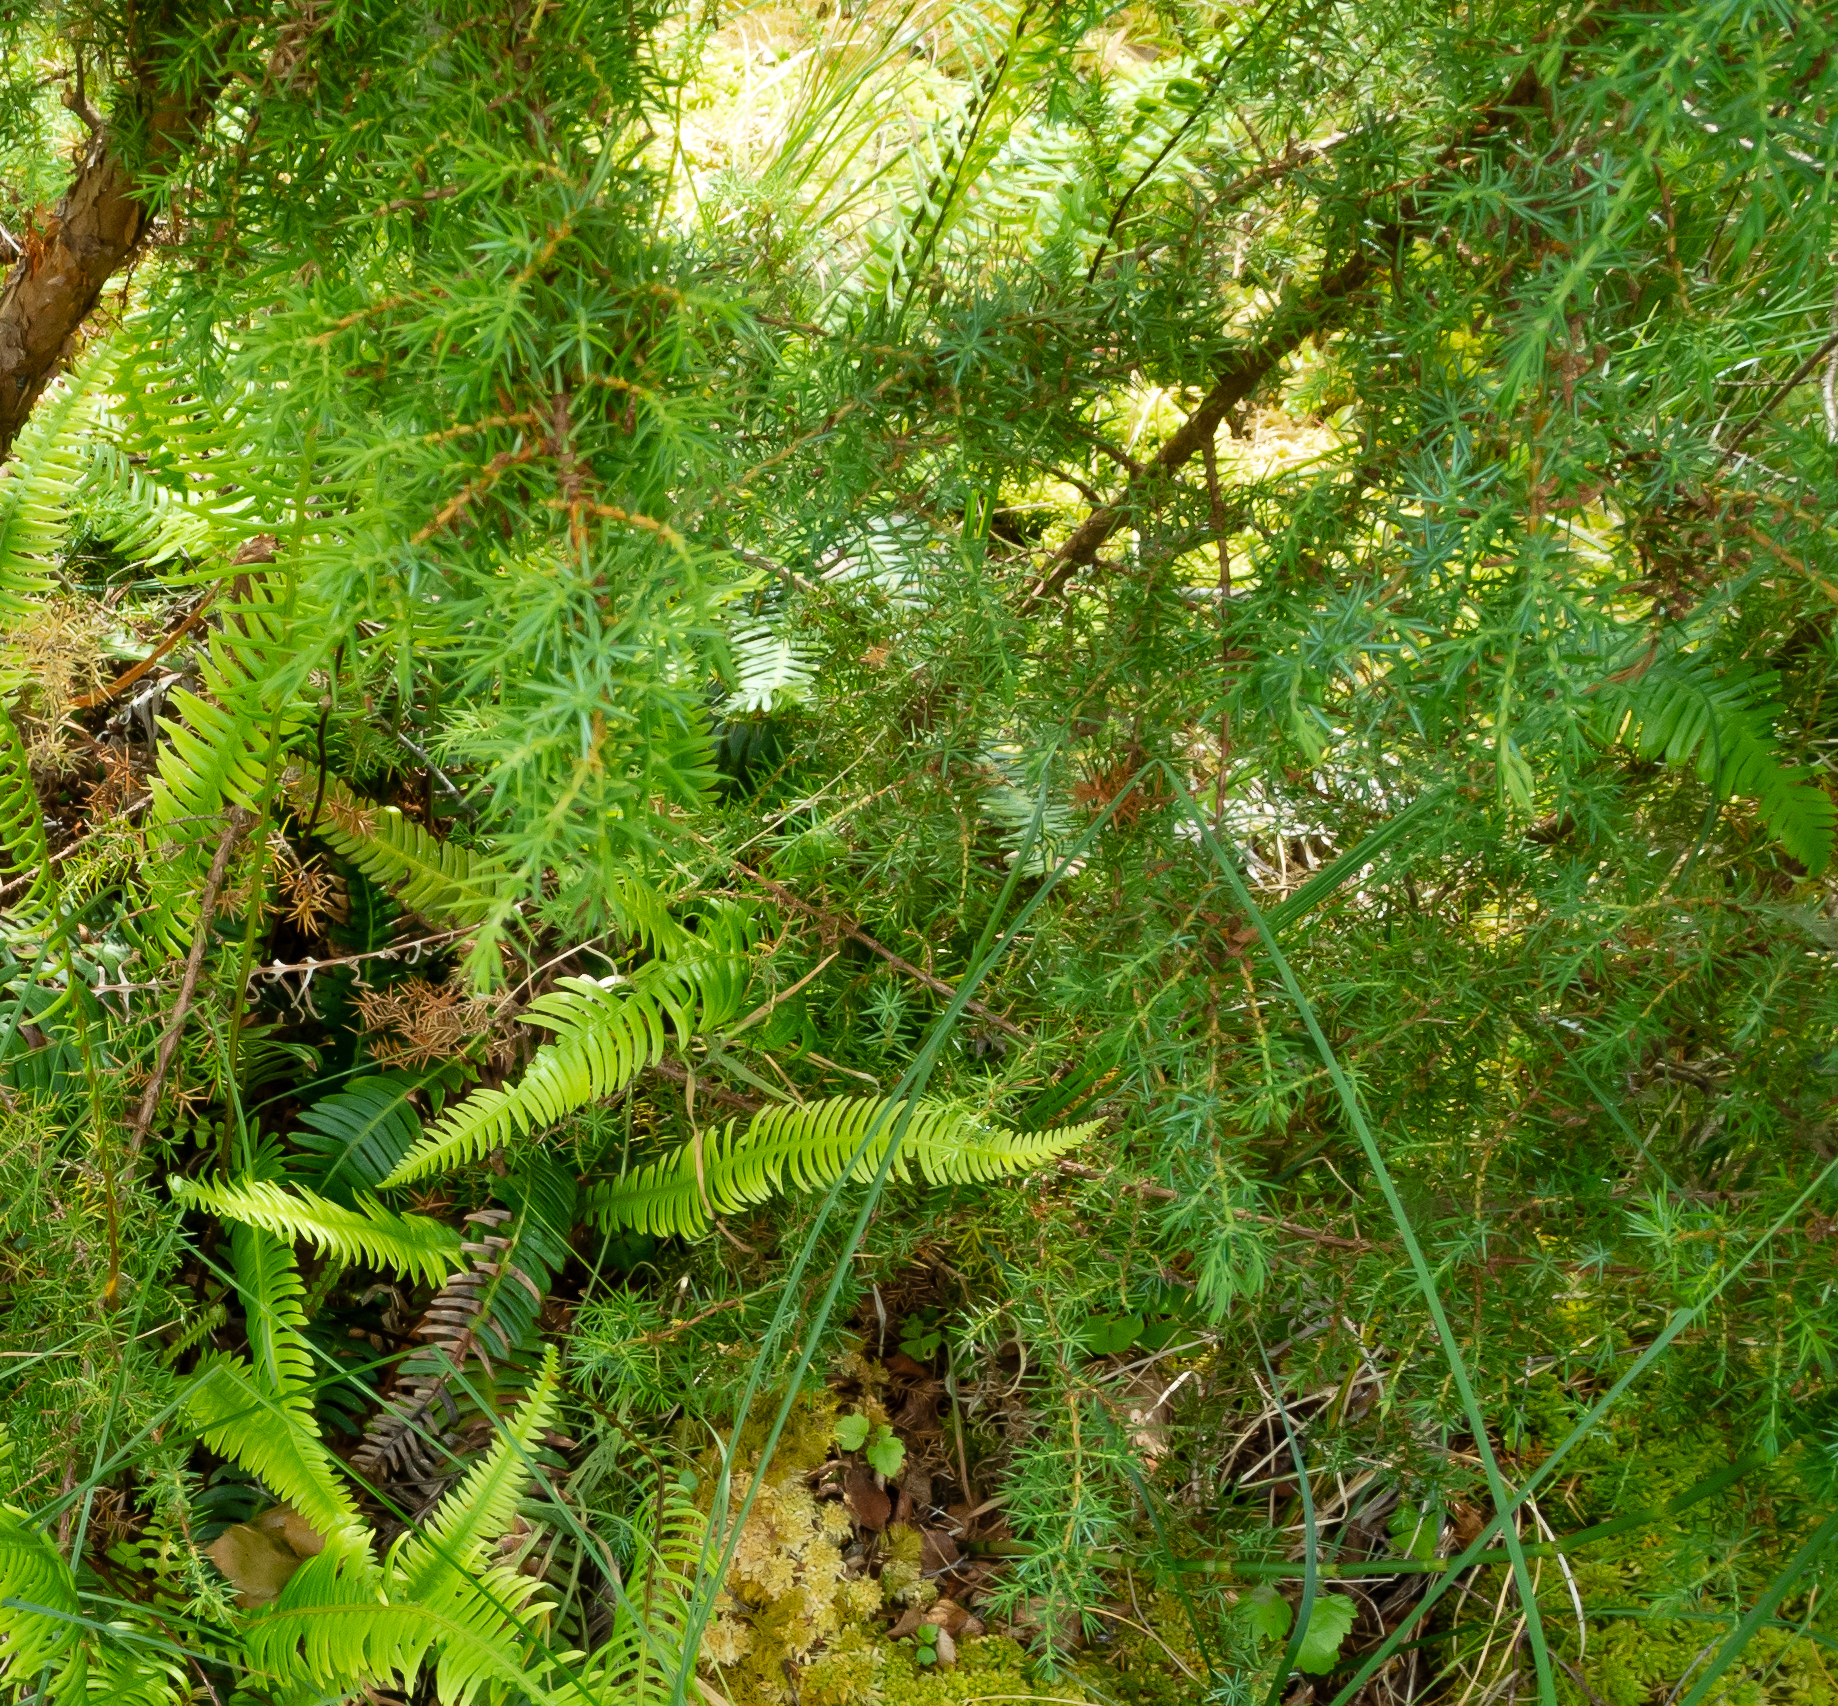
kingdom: Plantae
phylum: Tracheophyta
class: Pinopsida
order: Pinales
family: Cupressaceae
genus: Juniperus
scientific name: Juniperus communis
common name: Common juniper
